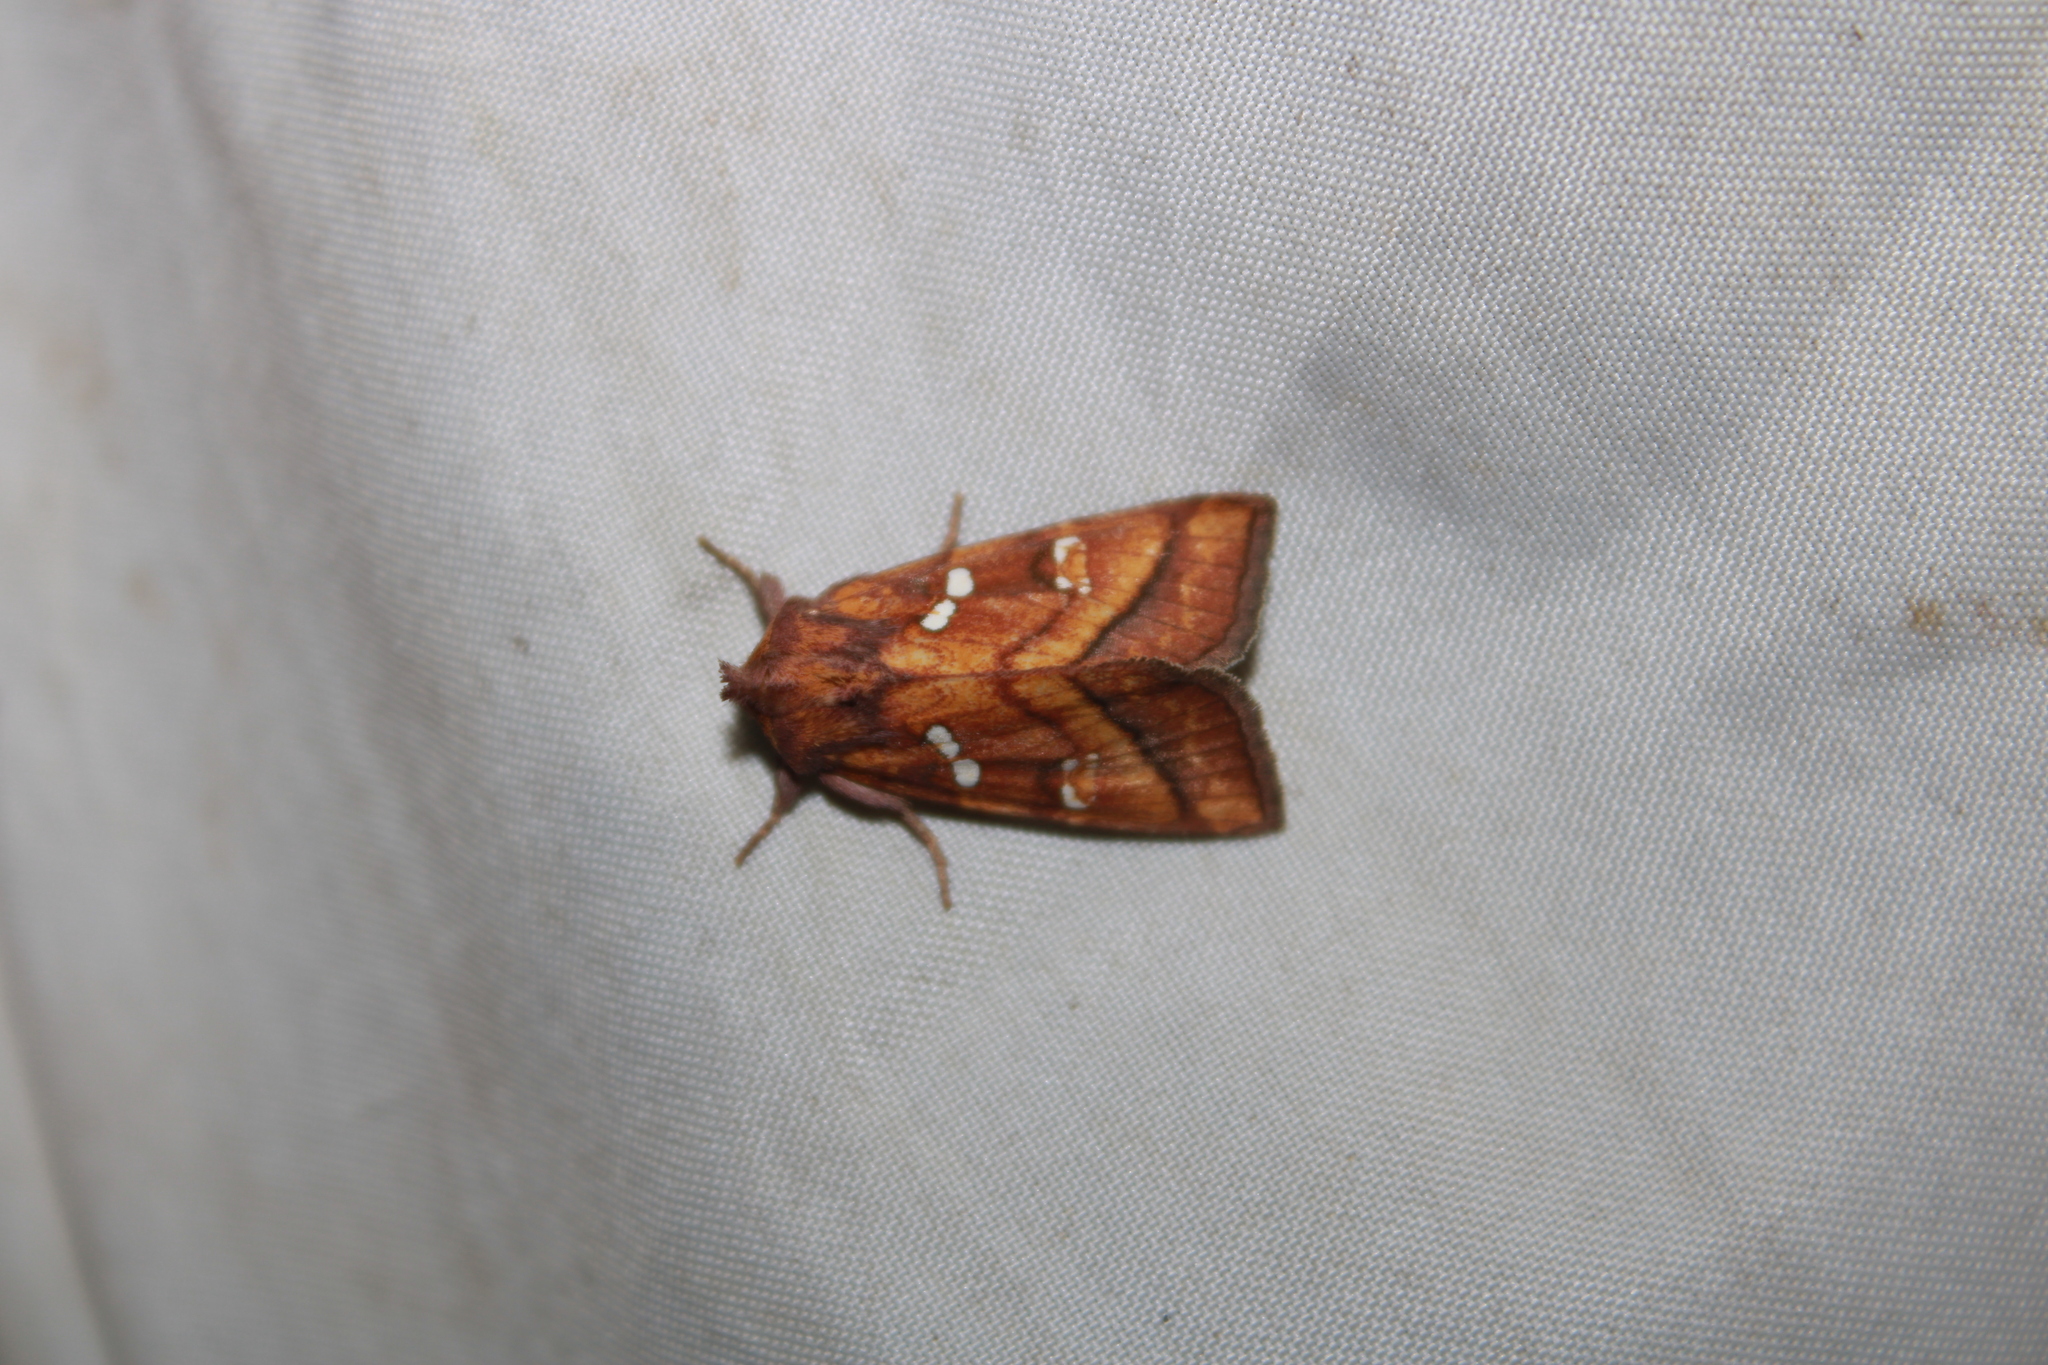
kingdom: Animalia
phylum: Arthropoda
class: Insecta
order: Lepidoptera
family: Noctuidae
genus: Papaipema
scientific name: Papaipema pterisii
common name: Bracken borer moth
